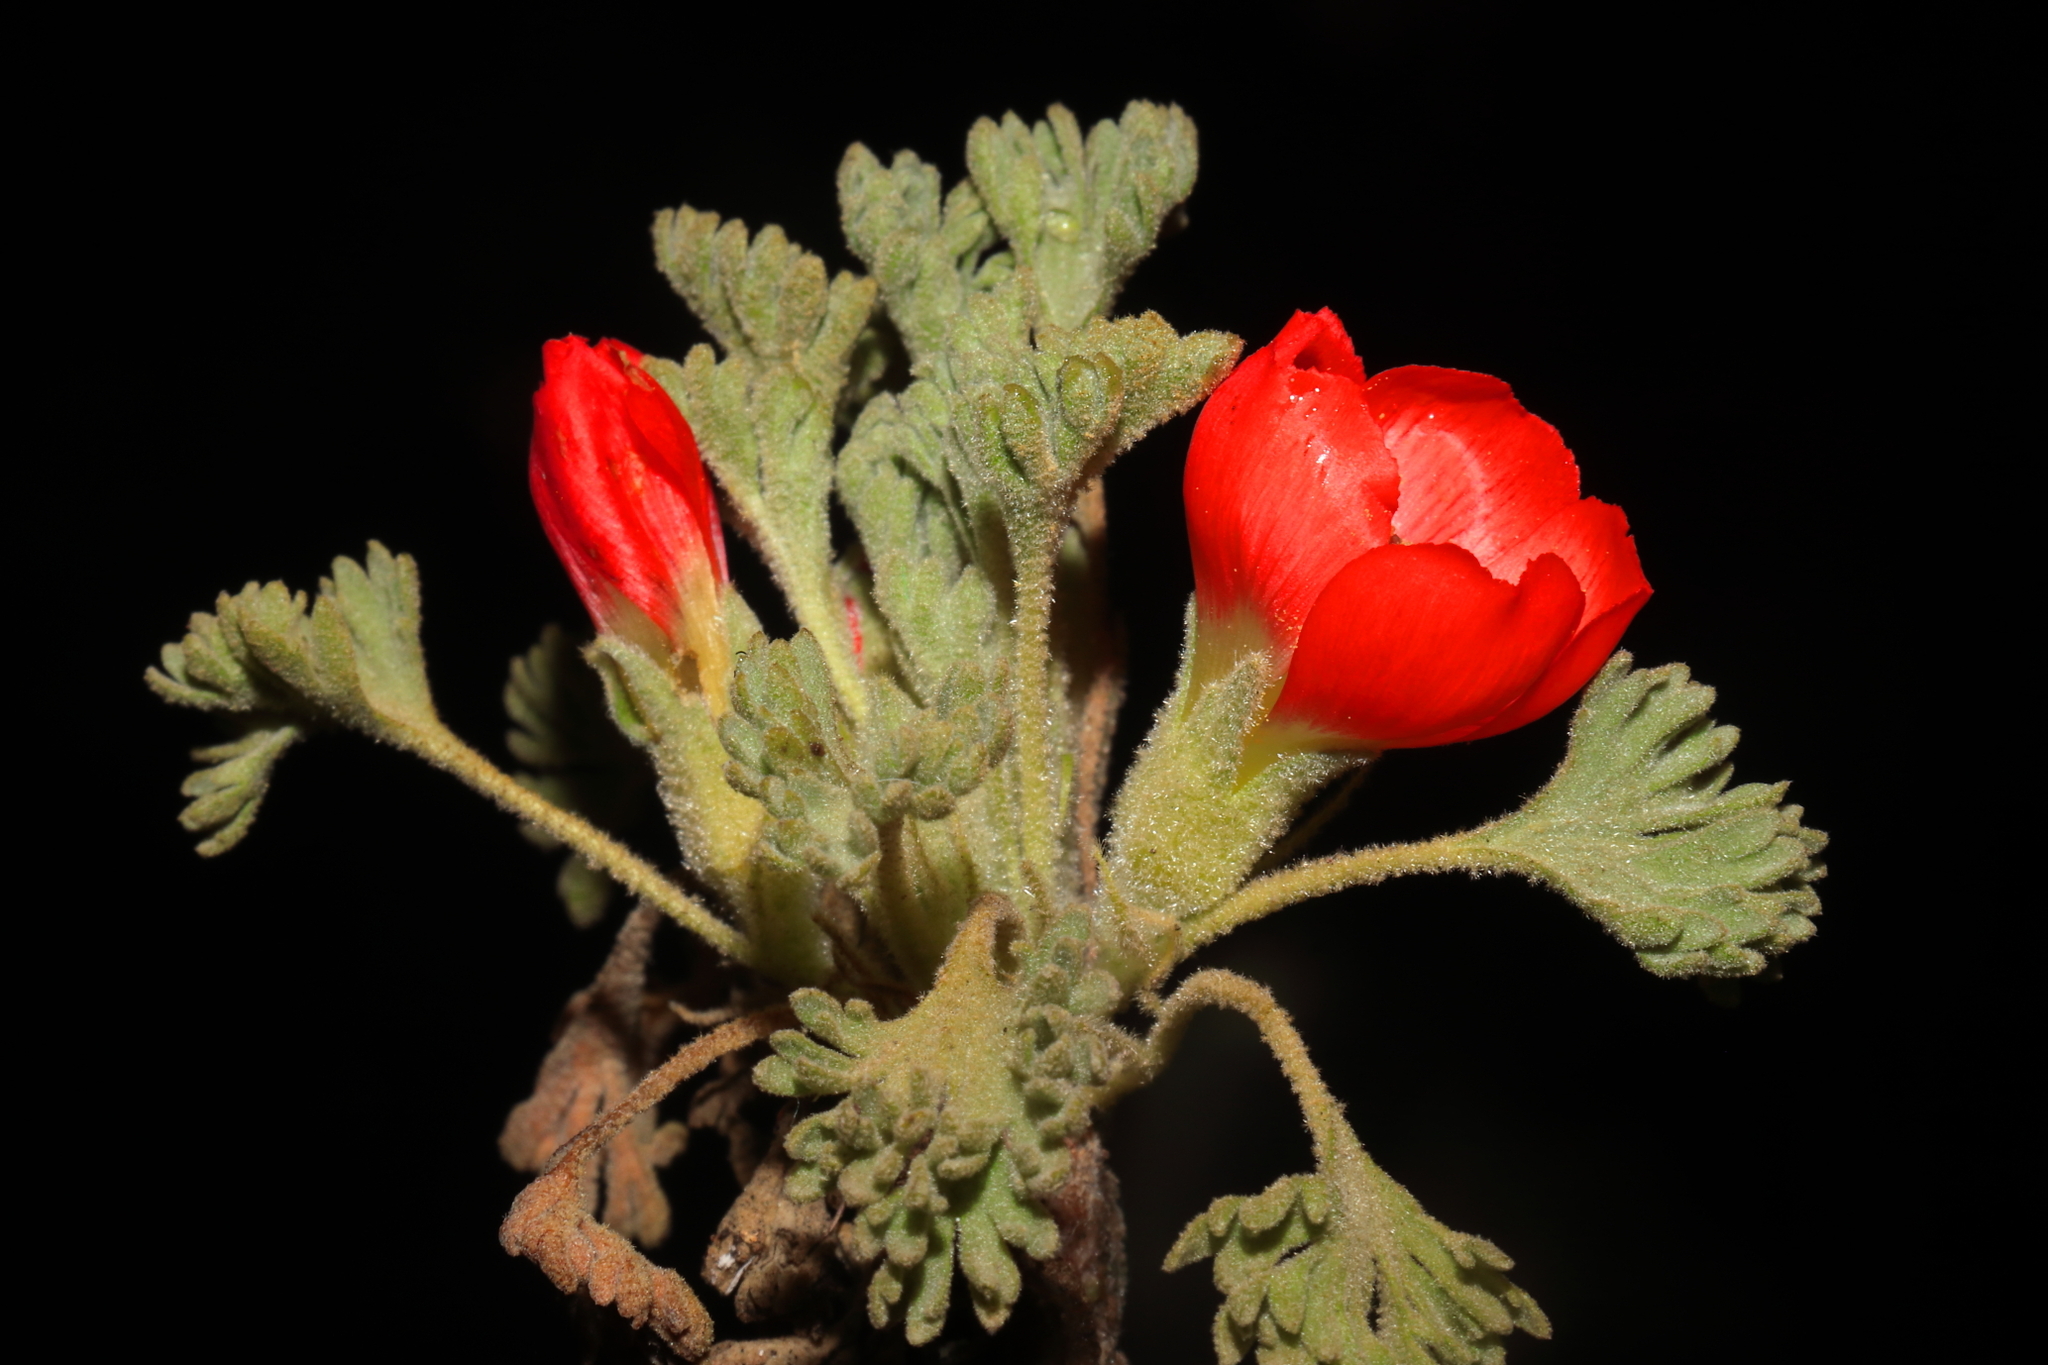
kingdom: Plantae
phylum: Tracheophyta
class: Magnoliopsida
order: Malvales
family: Malvaceae
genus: Nototriche
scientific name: Nototriche coccinea
